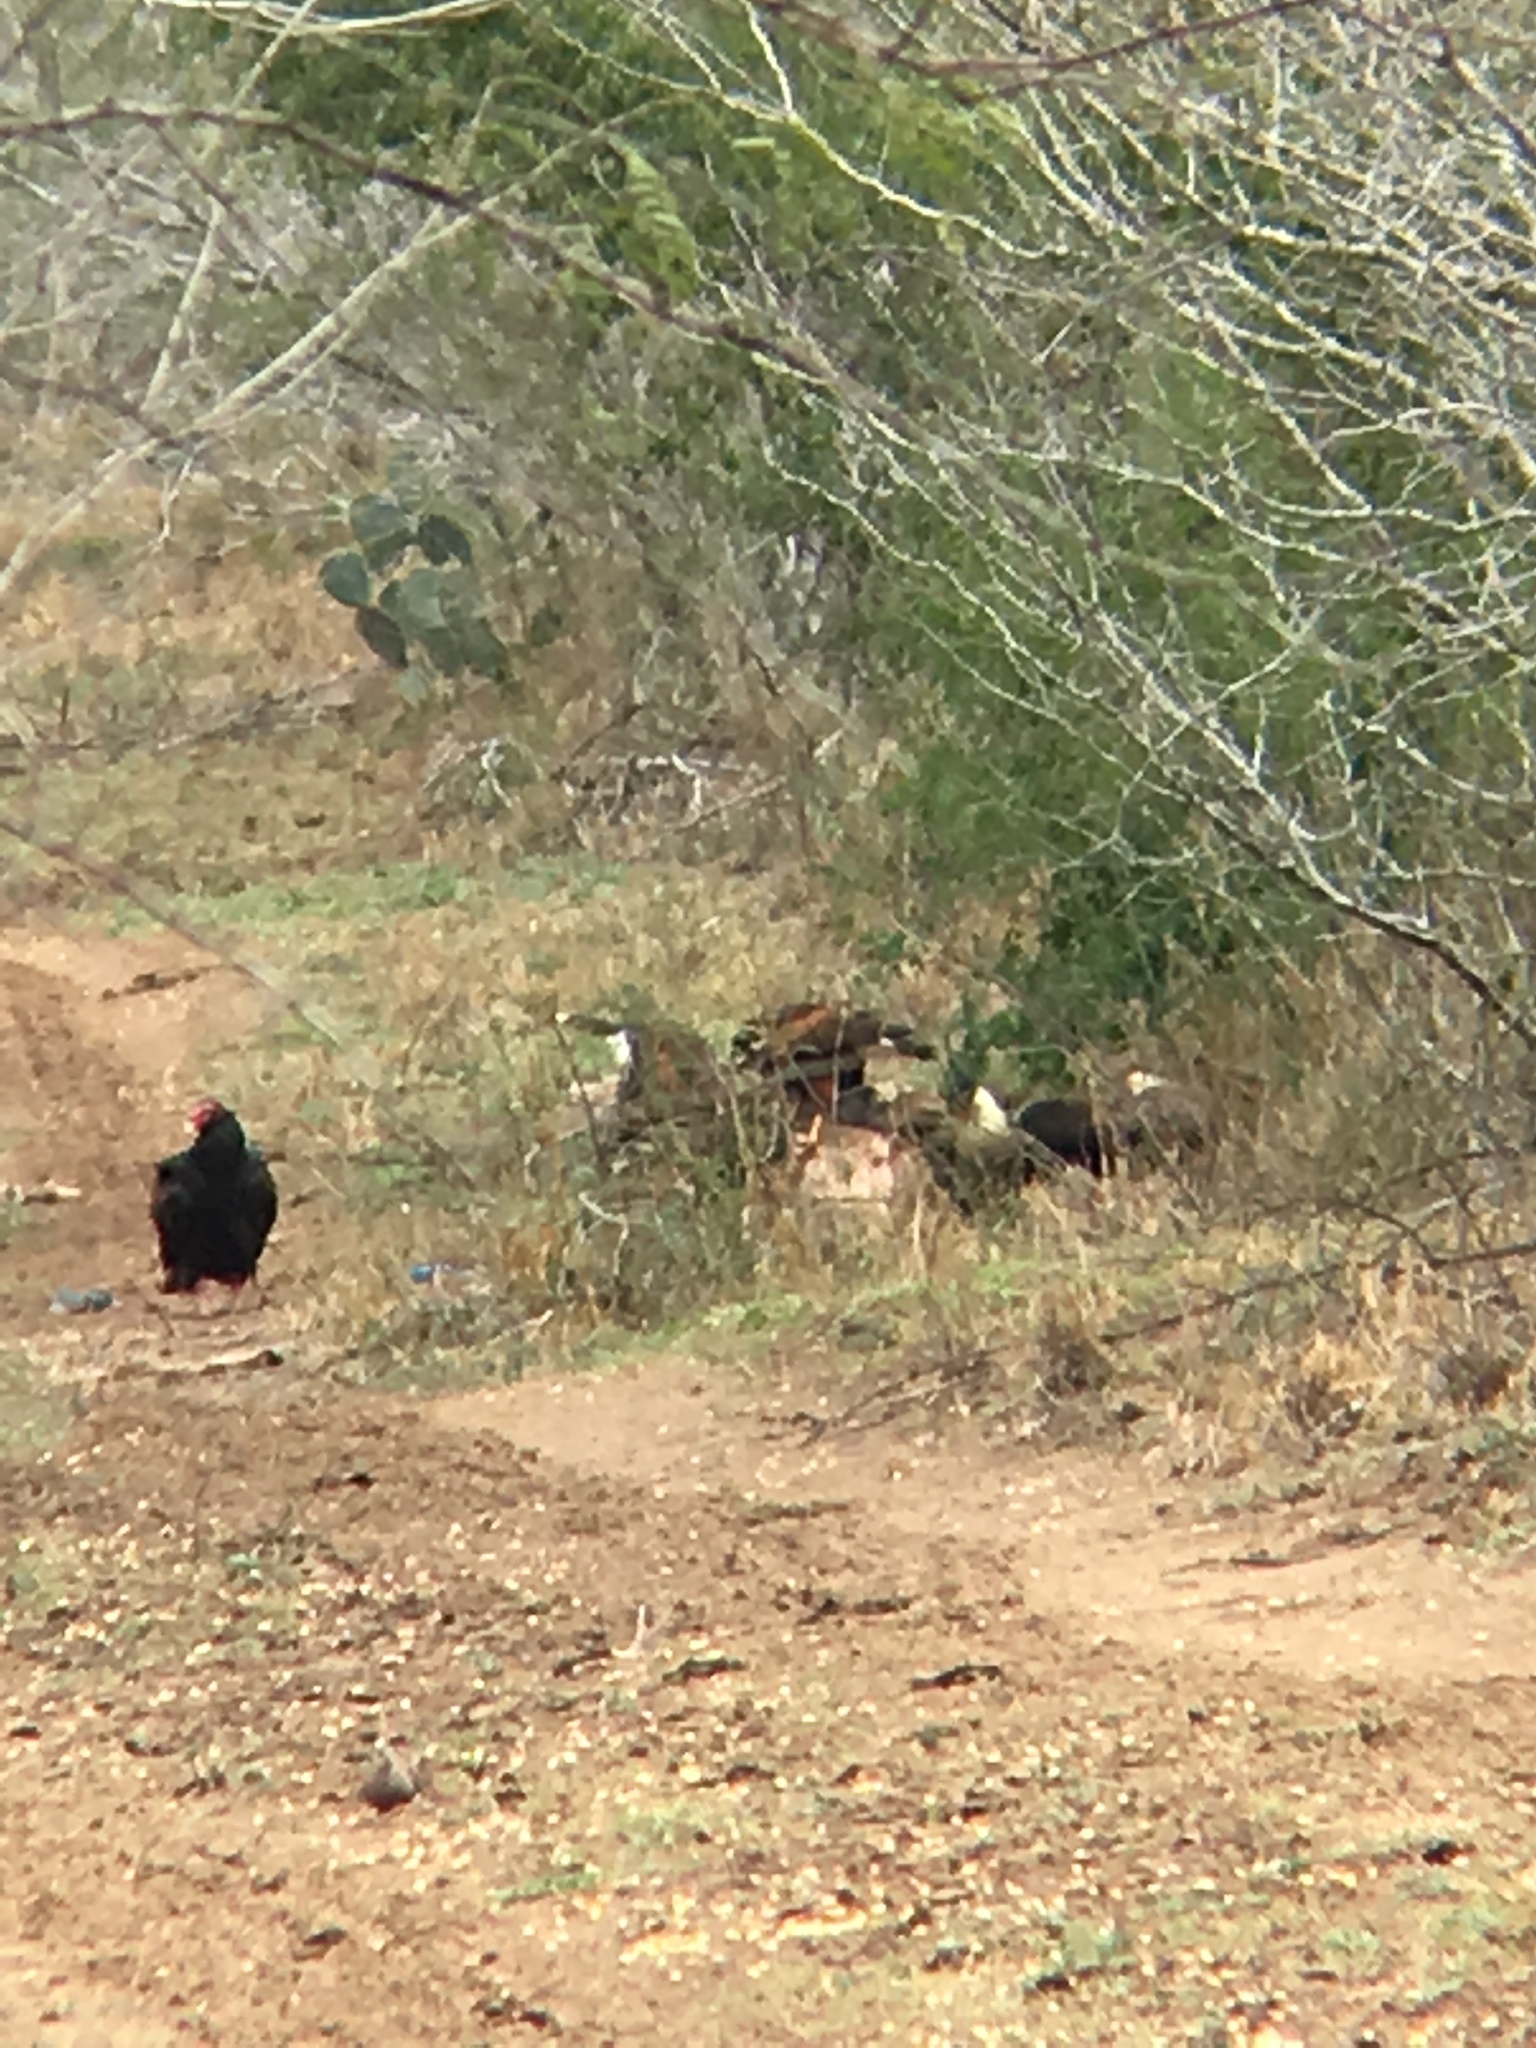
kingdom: Animalia
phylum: Chordata
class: Aves
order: Accipitriformes
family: Cathartidae
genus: Cathartes
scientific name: Cathartes aura
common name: Turkey vulture
